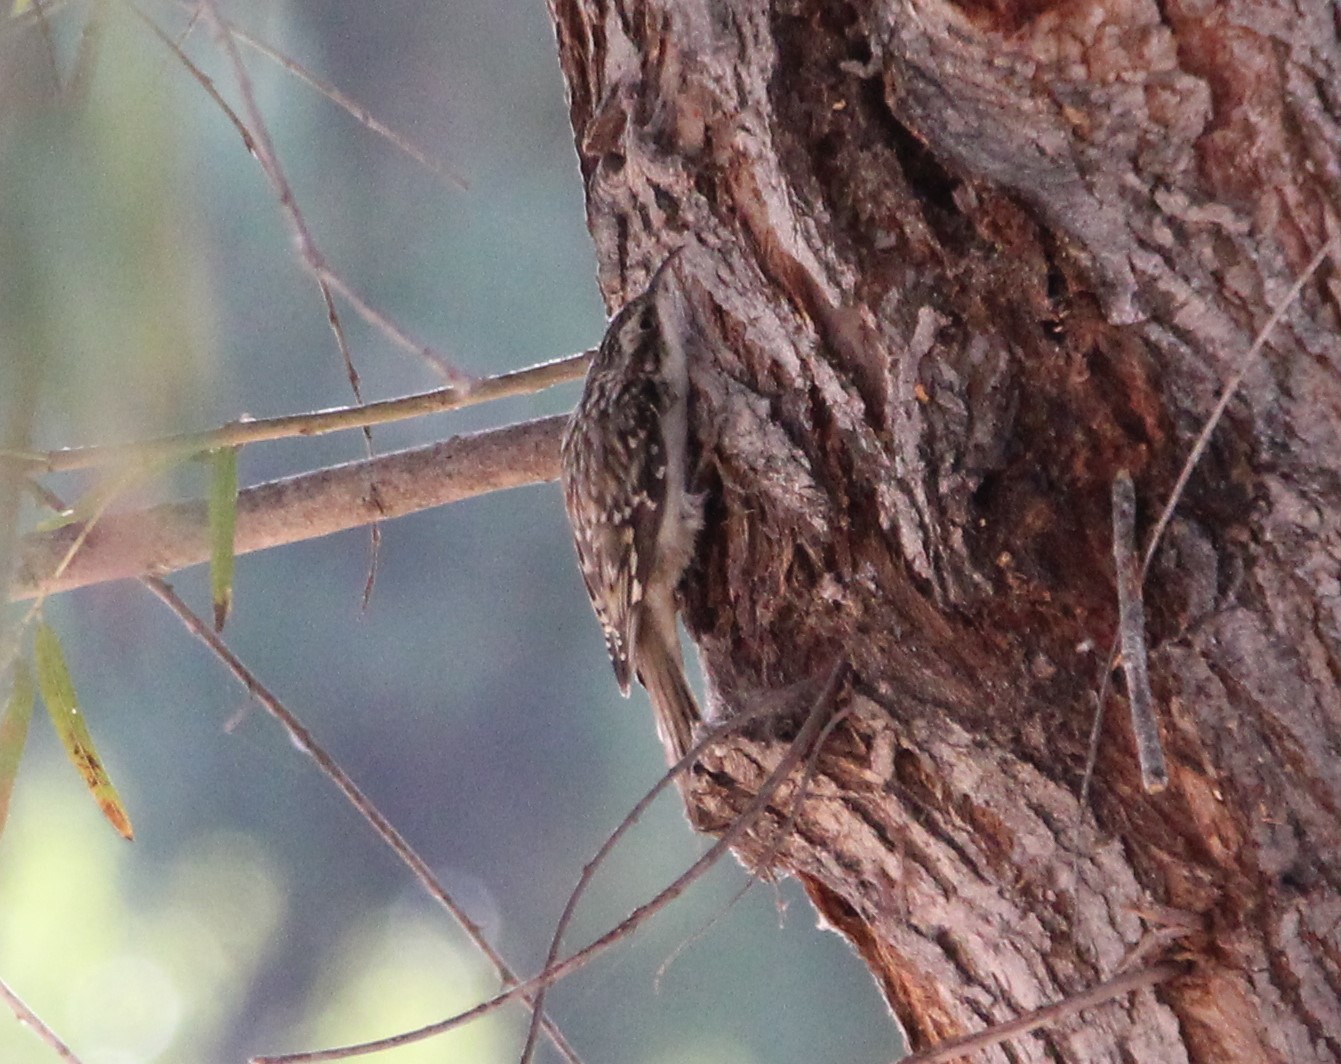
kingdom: Animalia
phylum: Chordata
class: Aves
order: Passeriformes
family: Certhiidae
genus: Certhia
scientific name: Certhia americana
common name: Brown creeper
